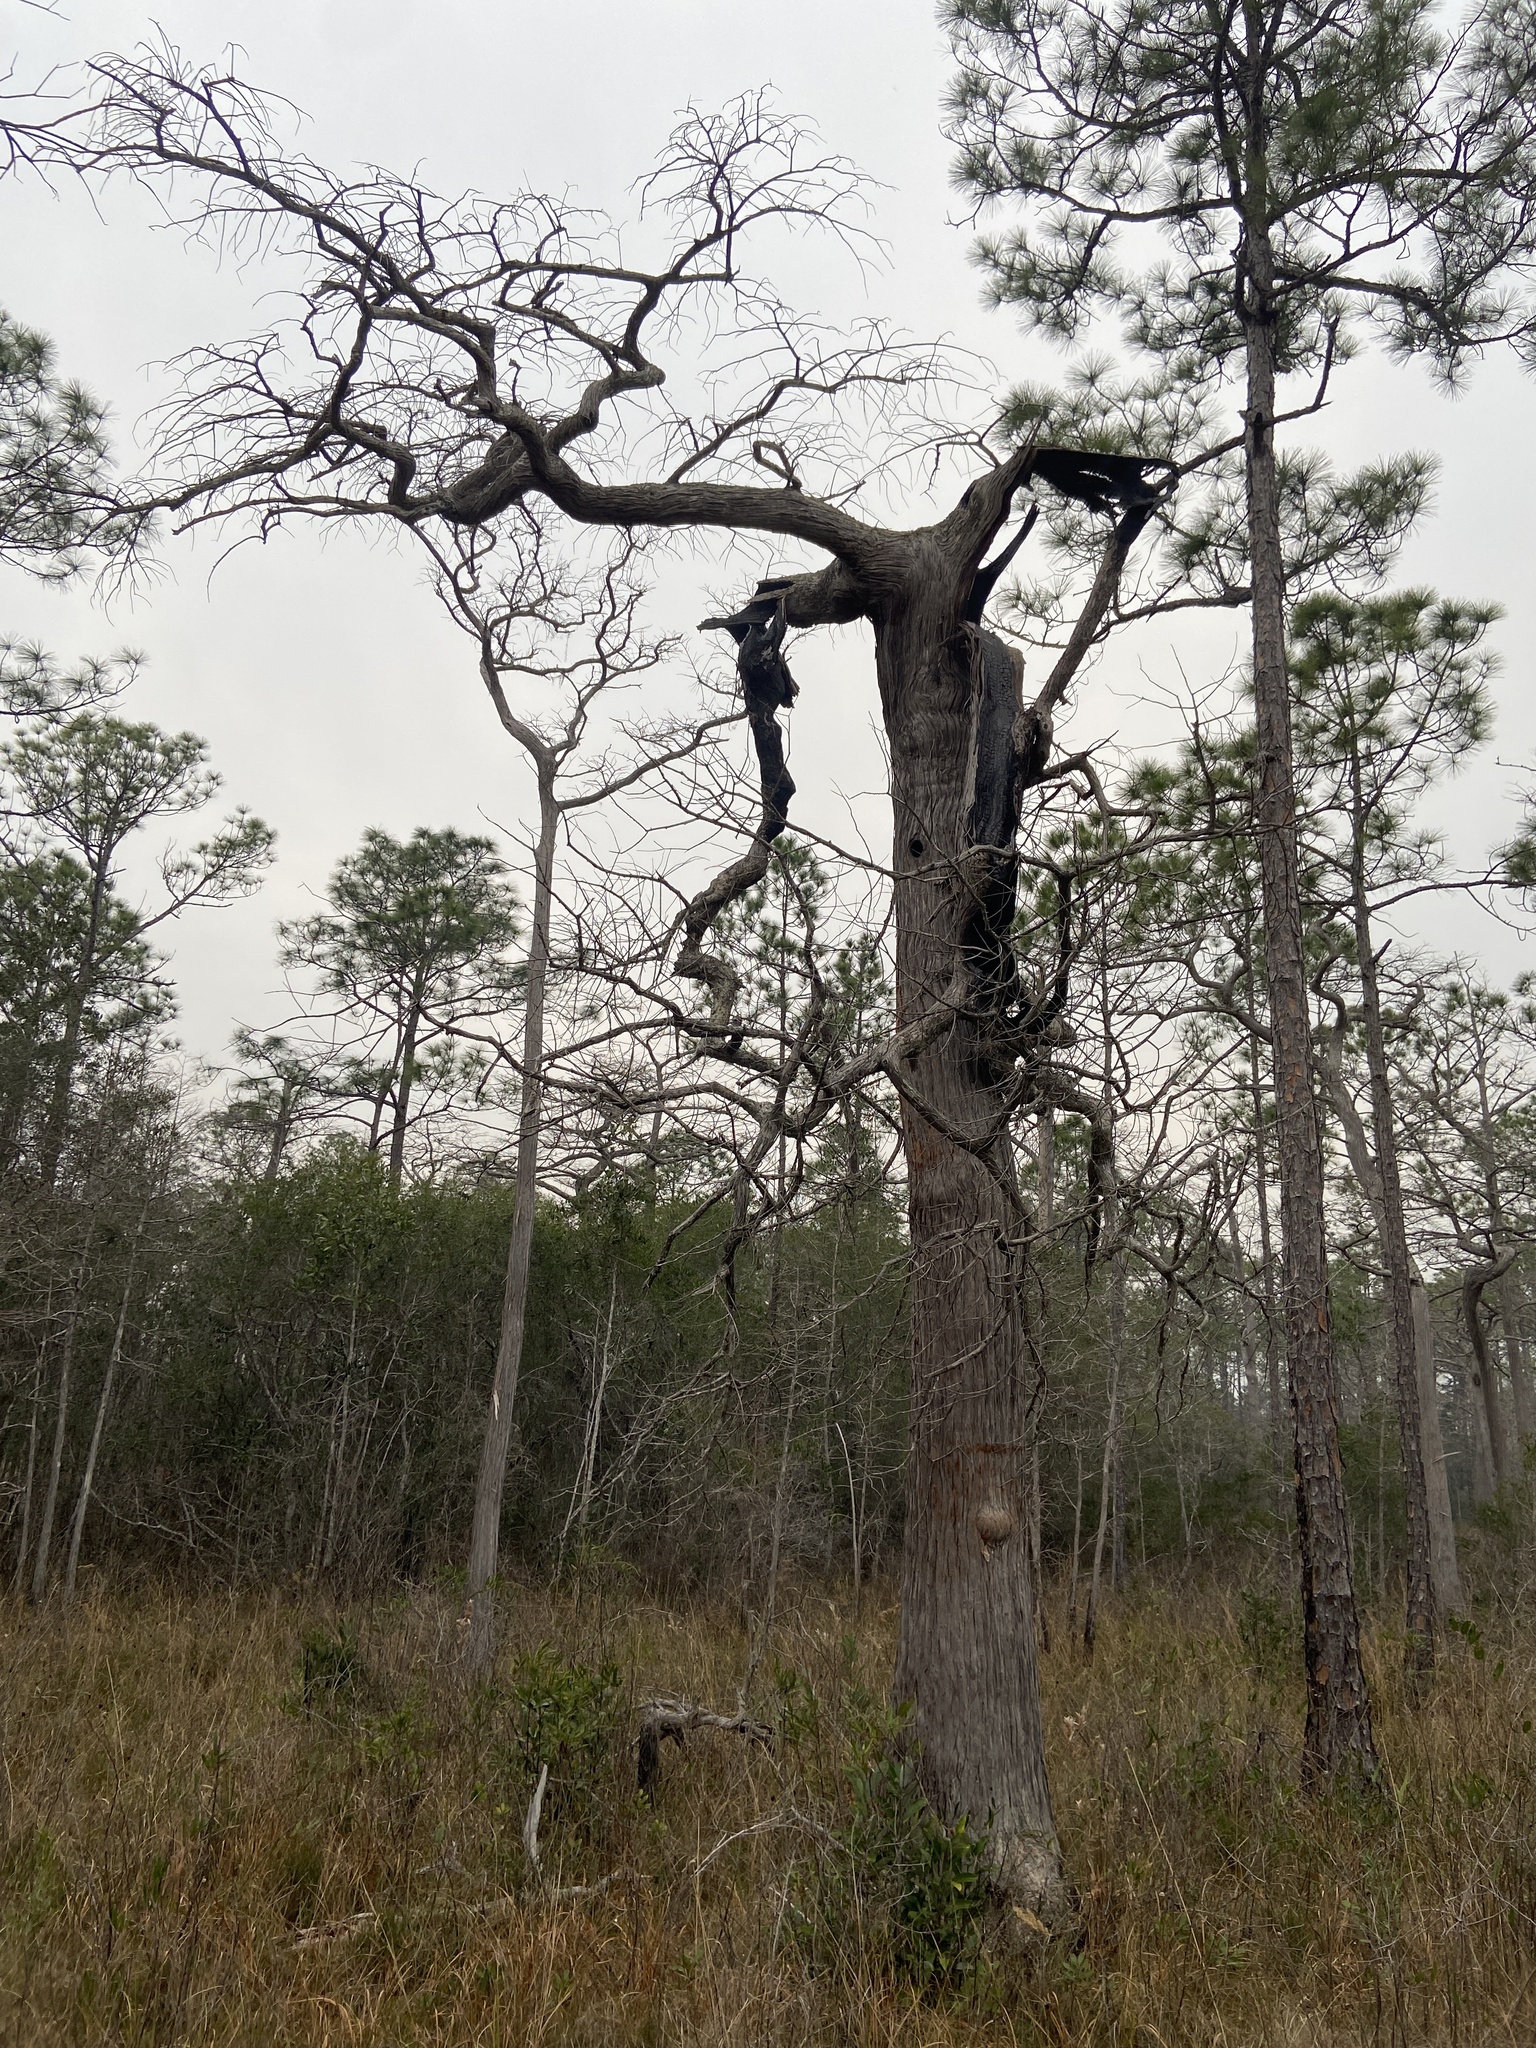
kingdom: Plantae
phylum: Tracheophyta
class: Pinopsida
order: Pinales
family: Cupressaceae
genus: Taxodium
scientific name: Taxodium distichum
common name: Bald cypress
